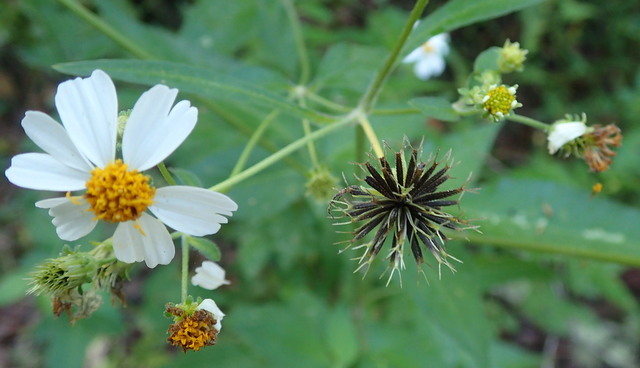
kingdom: Plantae
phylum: Tracheophyta
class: Magnoliopsida
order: Asterales
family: Asteraceae
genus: Bidens
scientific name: Bidens alba
